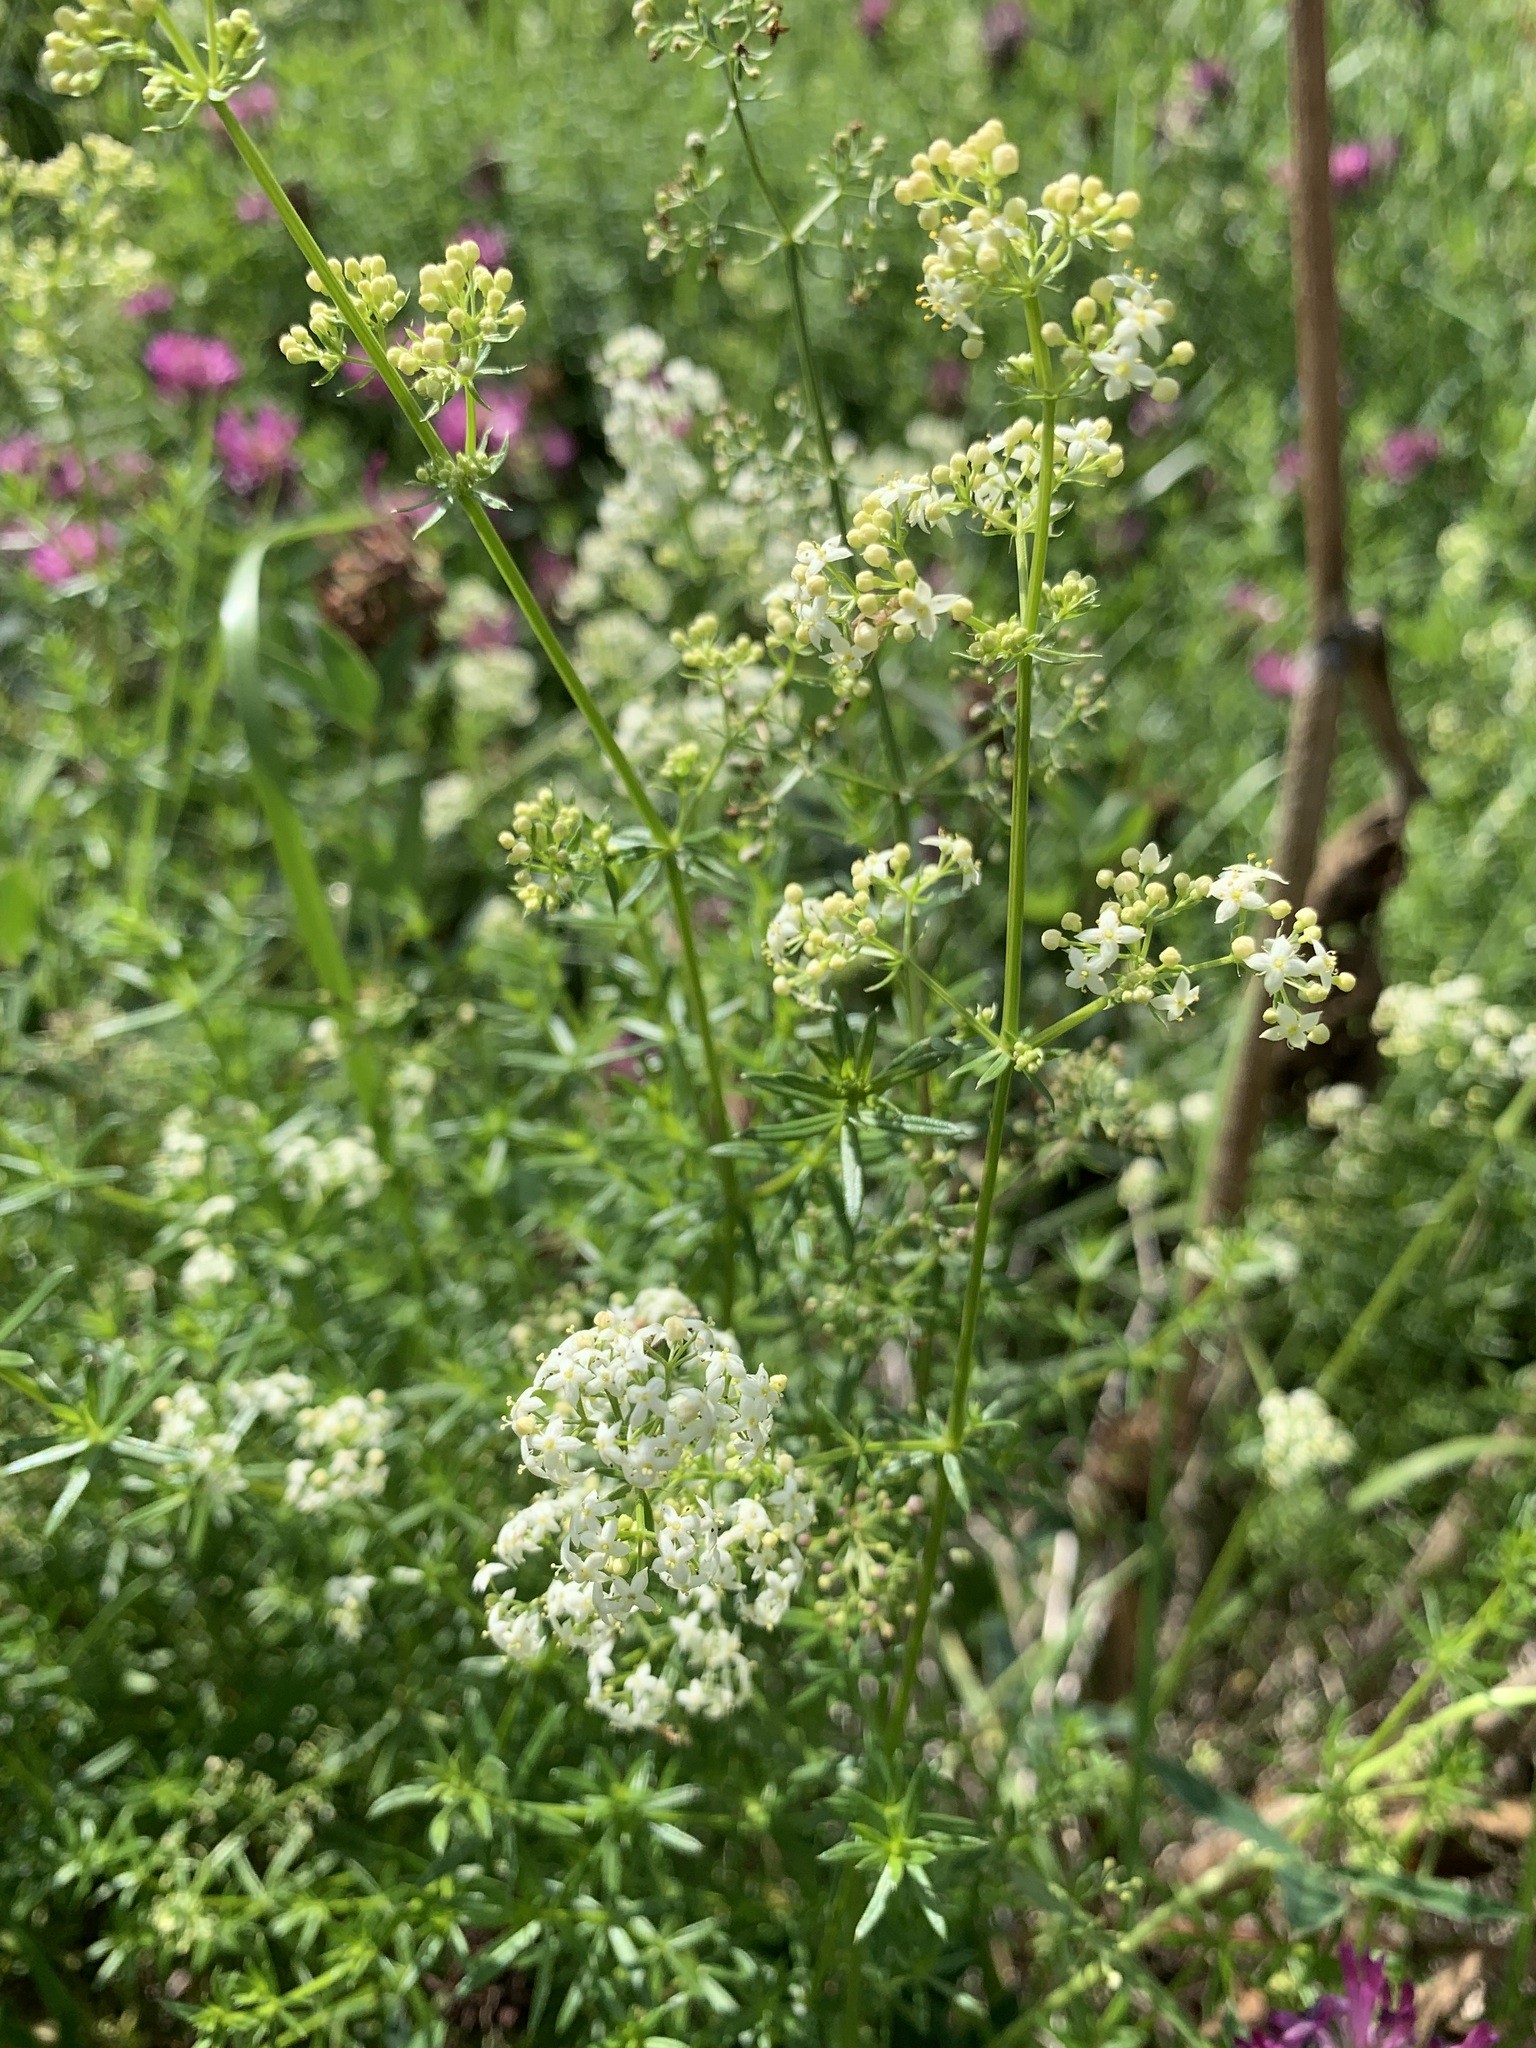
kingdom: Plantae
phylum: Tracheophyta
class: Magnoliopsida
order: Gentianales
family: Rubiaceae
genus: Galium
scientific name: Galium mollugo
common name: Hedge bedstraw
